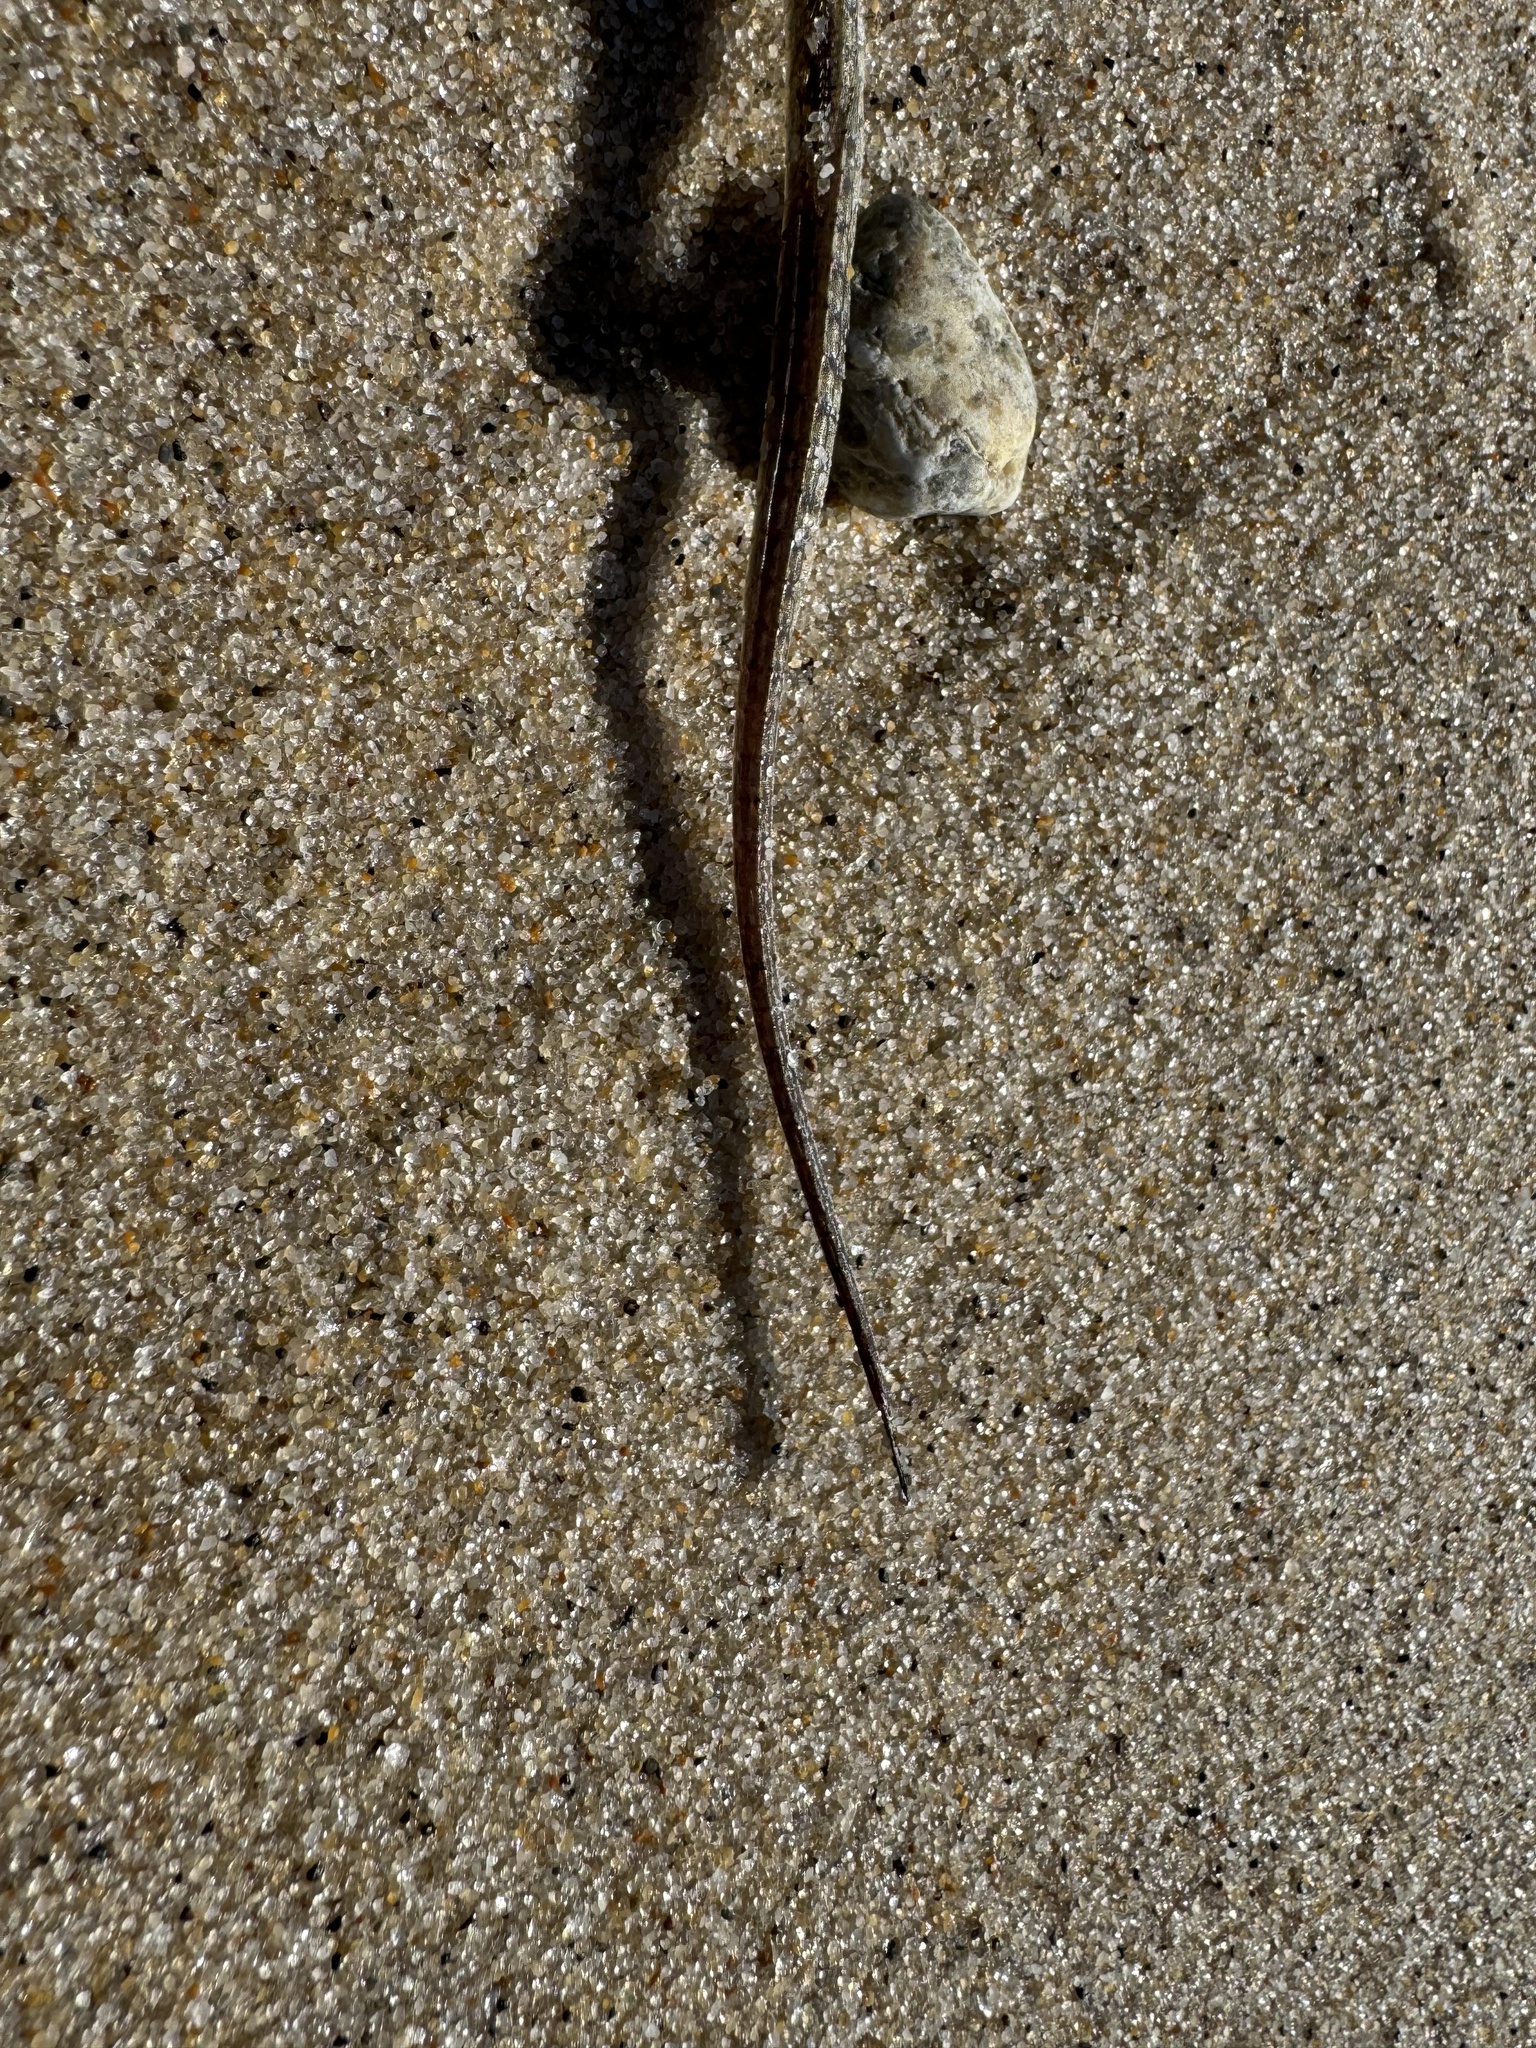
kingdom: Animalia
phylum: Chordata
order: Syngnathiformes
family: Syngnathidae
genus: Syngnathus
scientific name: Syngnathus fuscus
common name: Northern pipefish
